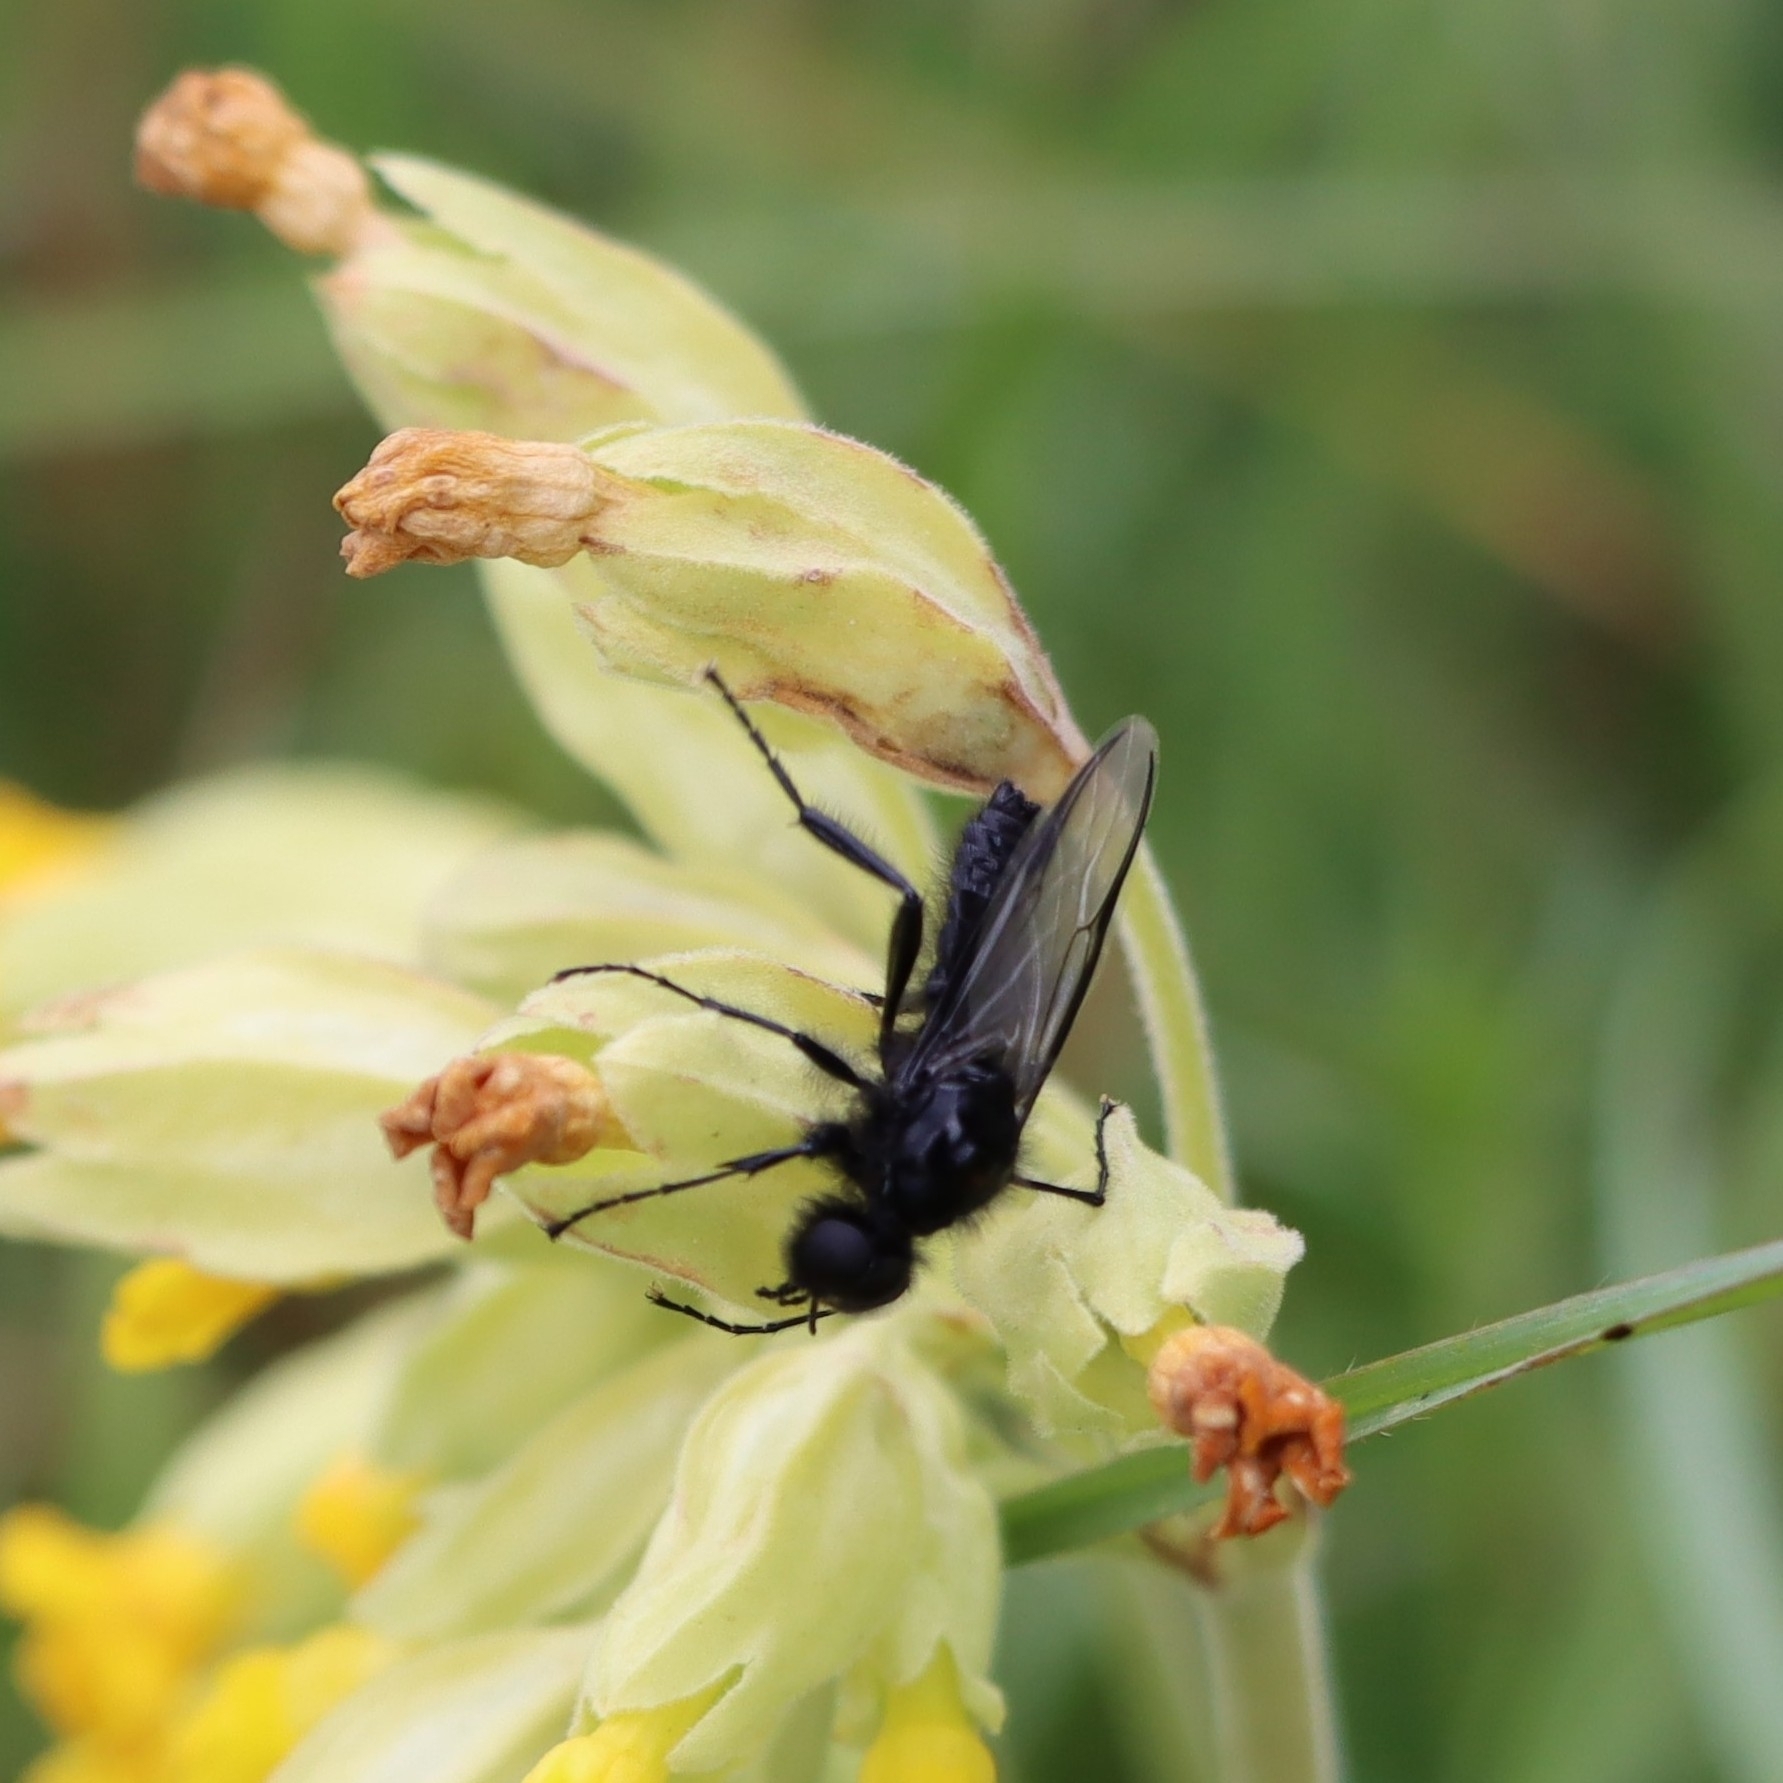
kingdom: Animalia
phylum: Arthropoda
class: Insecta
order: Diptera
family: Bibionidae
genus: Bibio
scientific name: Bibio marci
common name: St marks fly
